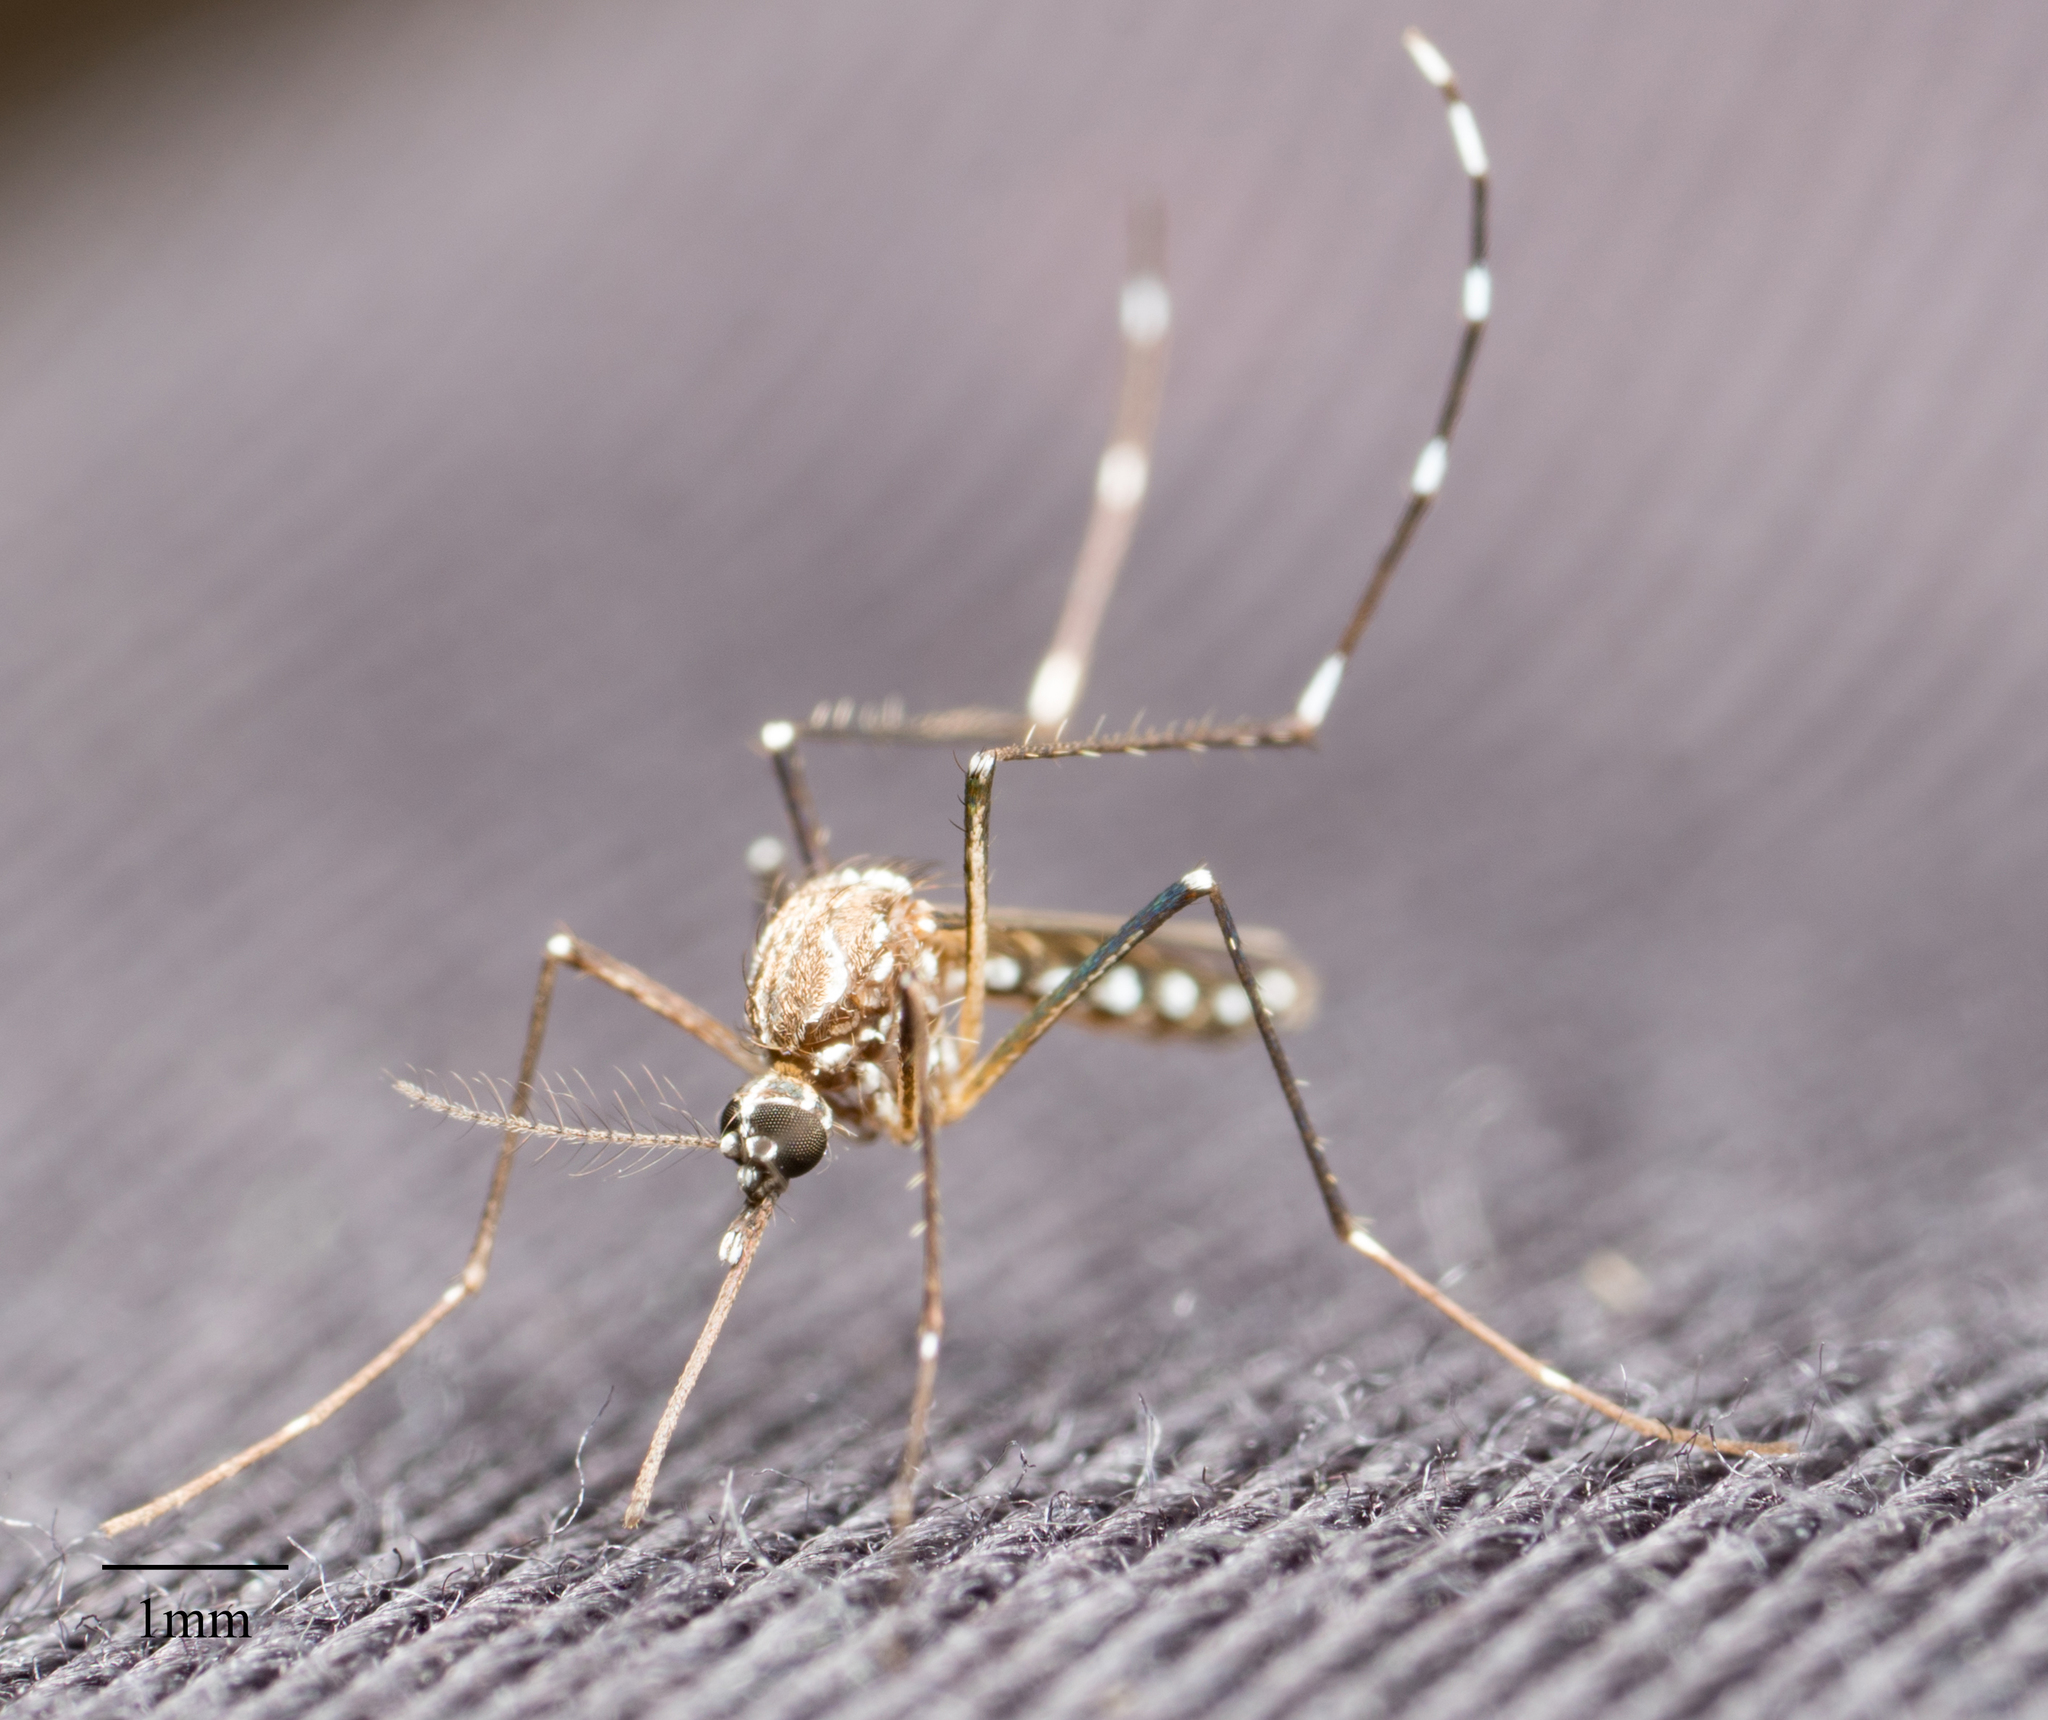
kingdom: Animalia
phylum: Arthropoda
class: Insecta
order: Diptera
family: Culicidae
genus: Aedes
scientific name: Aedes aegypti
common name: Yellow fever mosquito
